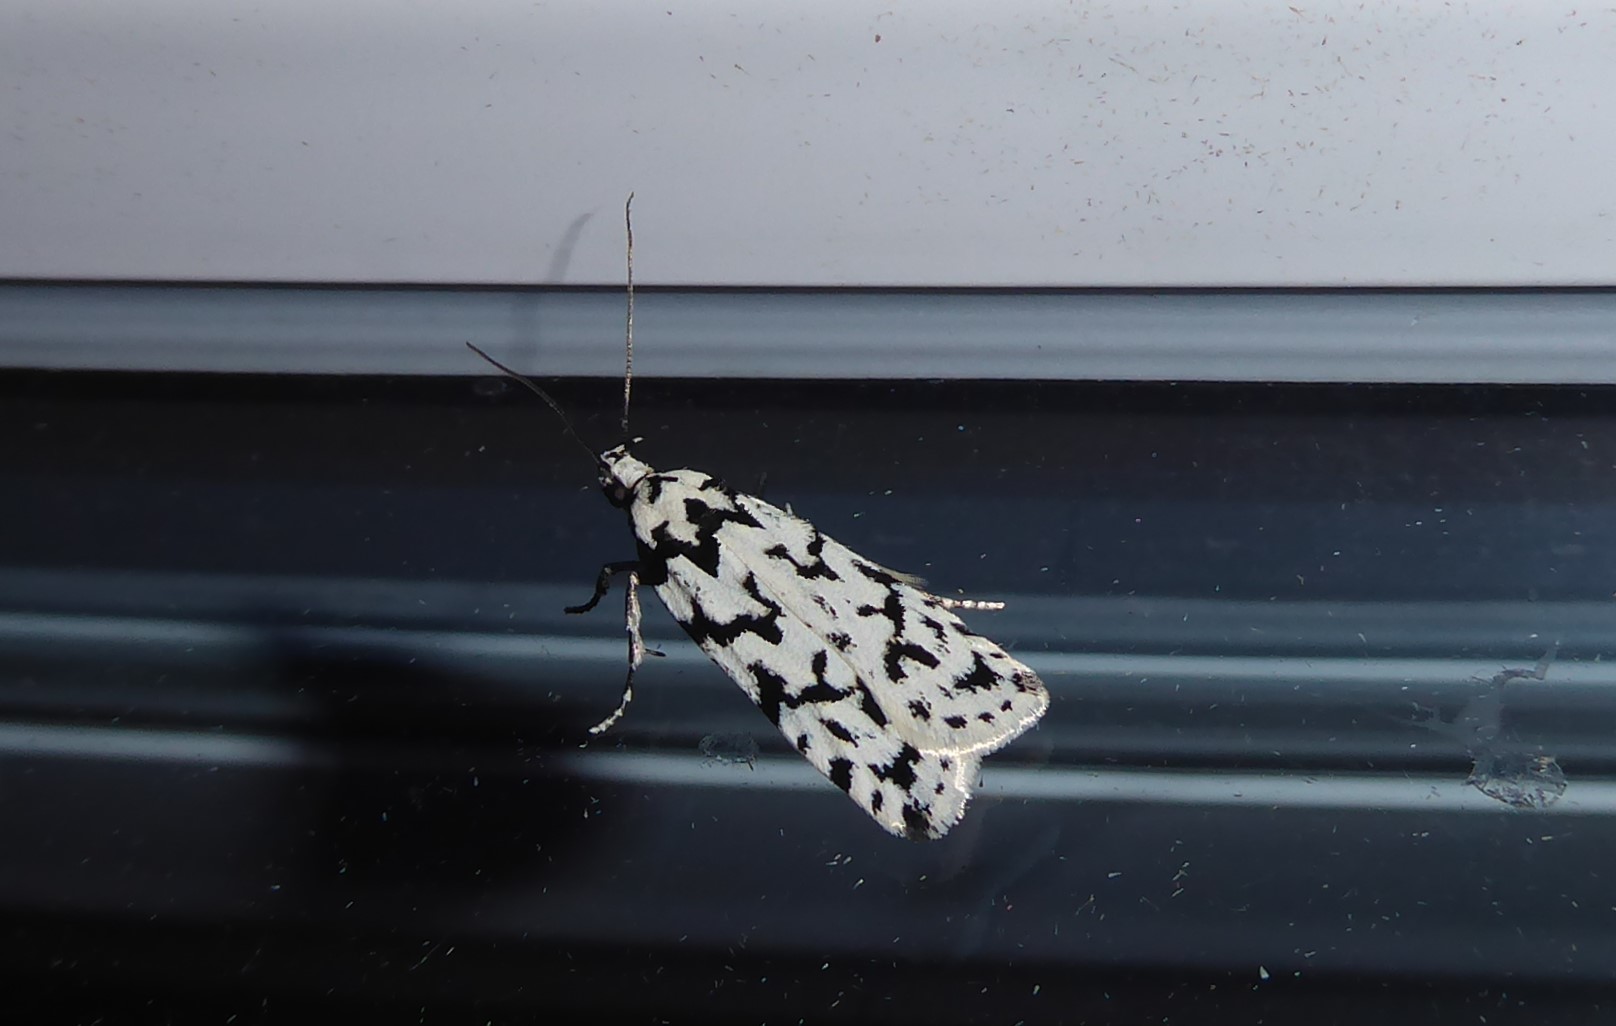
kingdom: Animalia
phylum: Arthropoda
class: Insecta
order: Lepidoptera
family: Oecophoridae
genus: Izatha
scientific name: Izatha katadiktya
